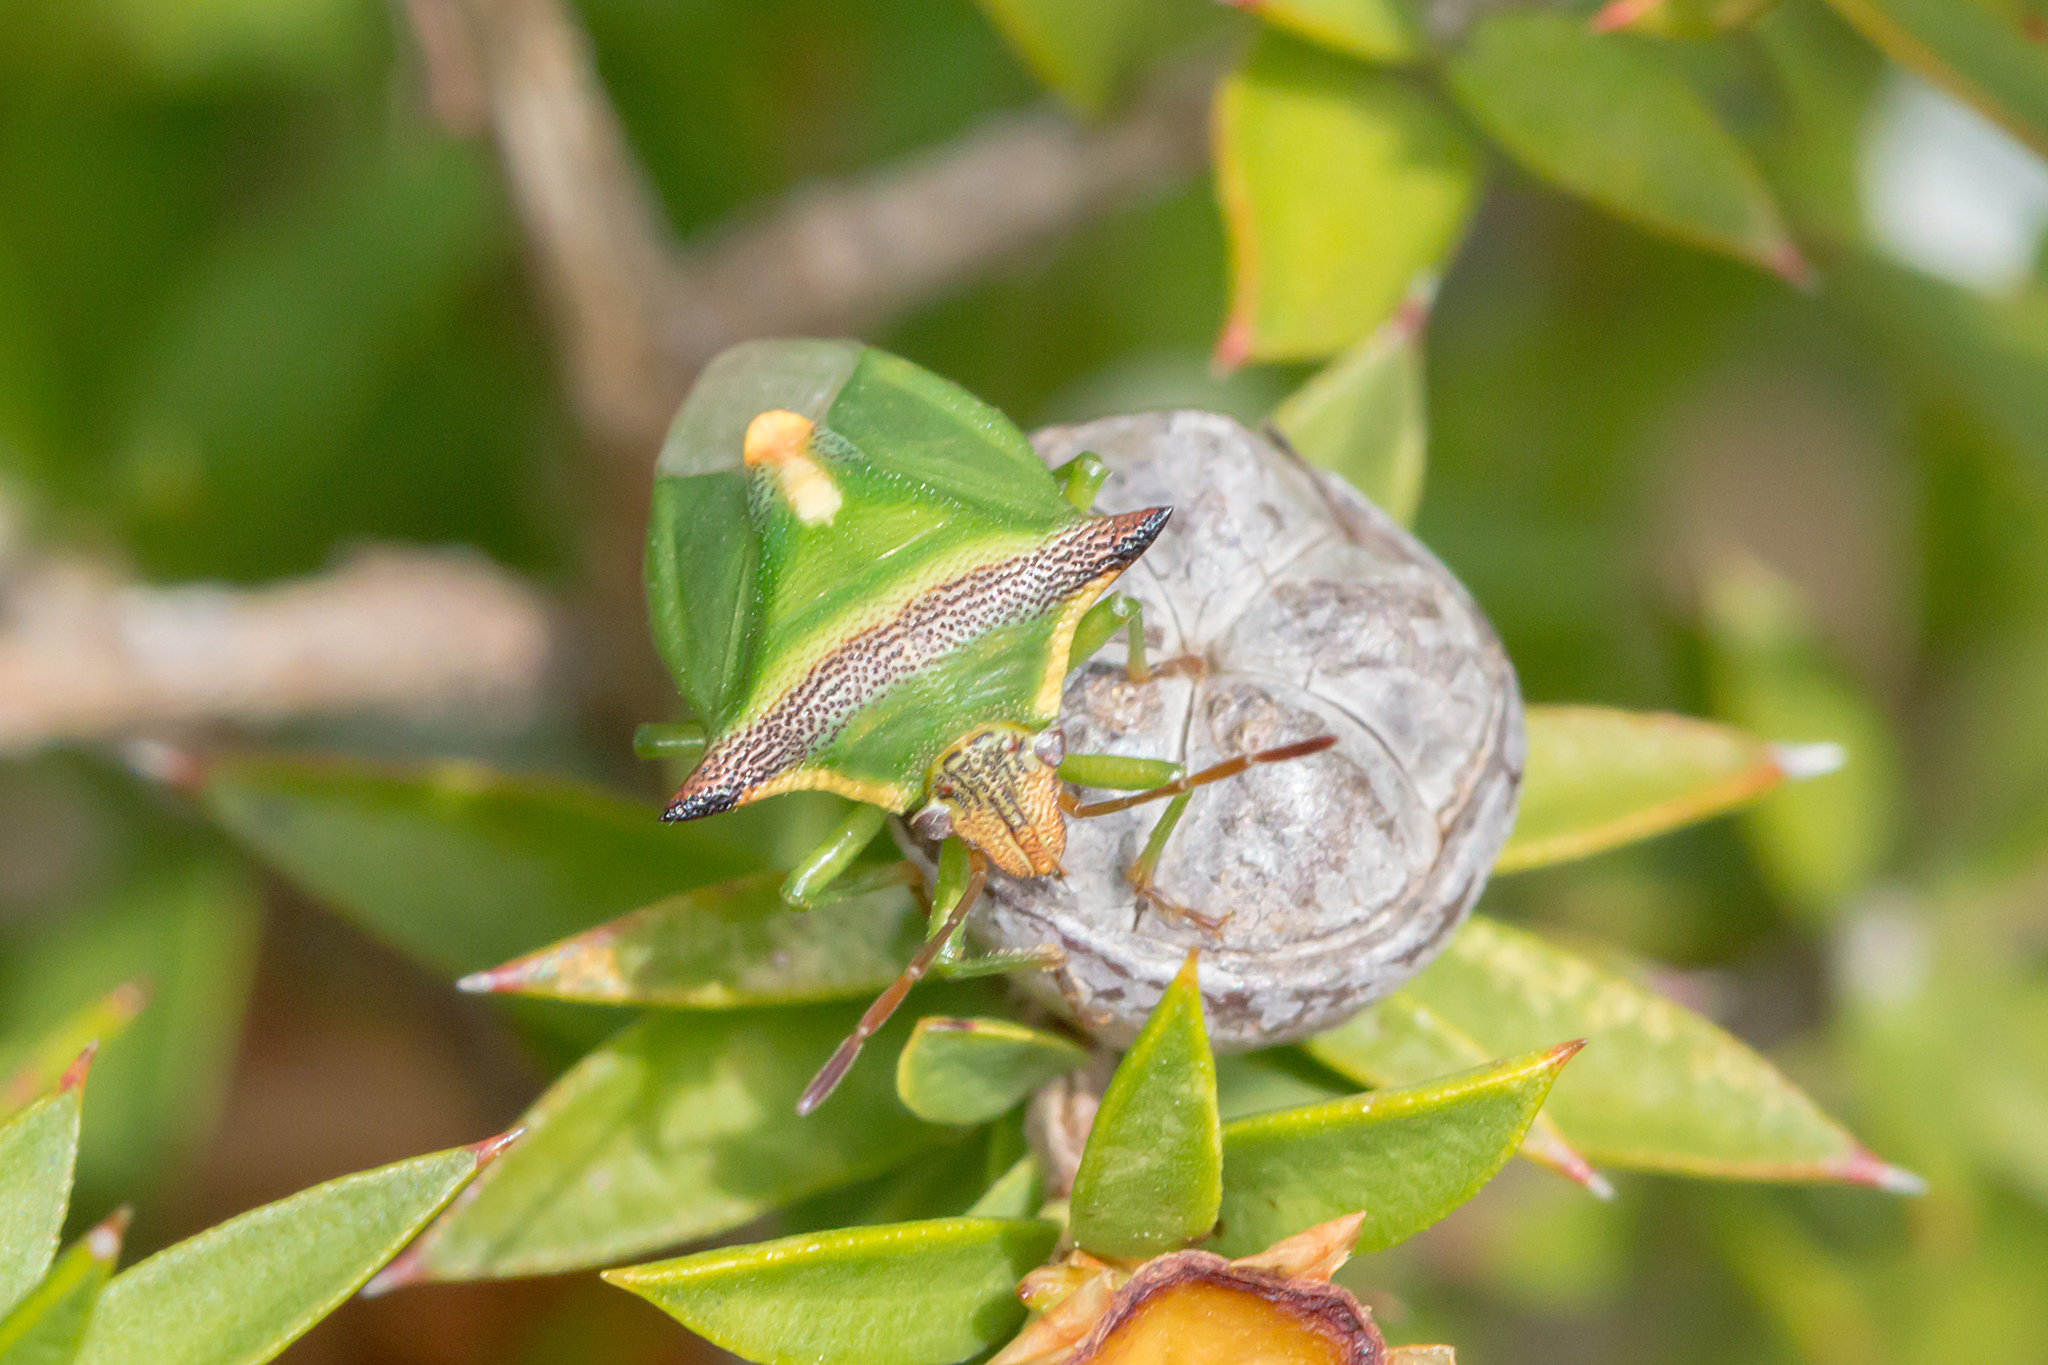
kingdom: Animalia
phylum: Arthropoda
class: Insecta
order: Hemiptera
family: Pentatomidae
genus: Cuspicona
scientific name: Cuspicona
